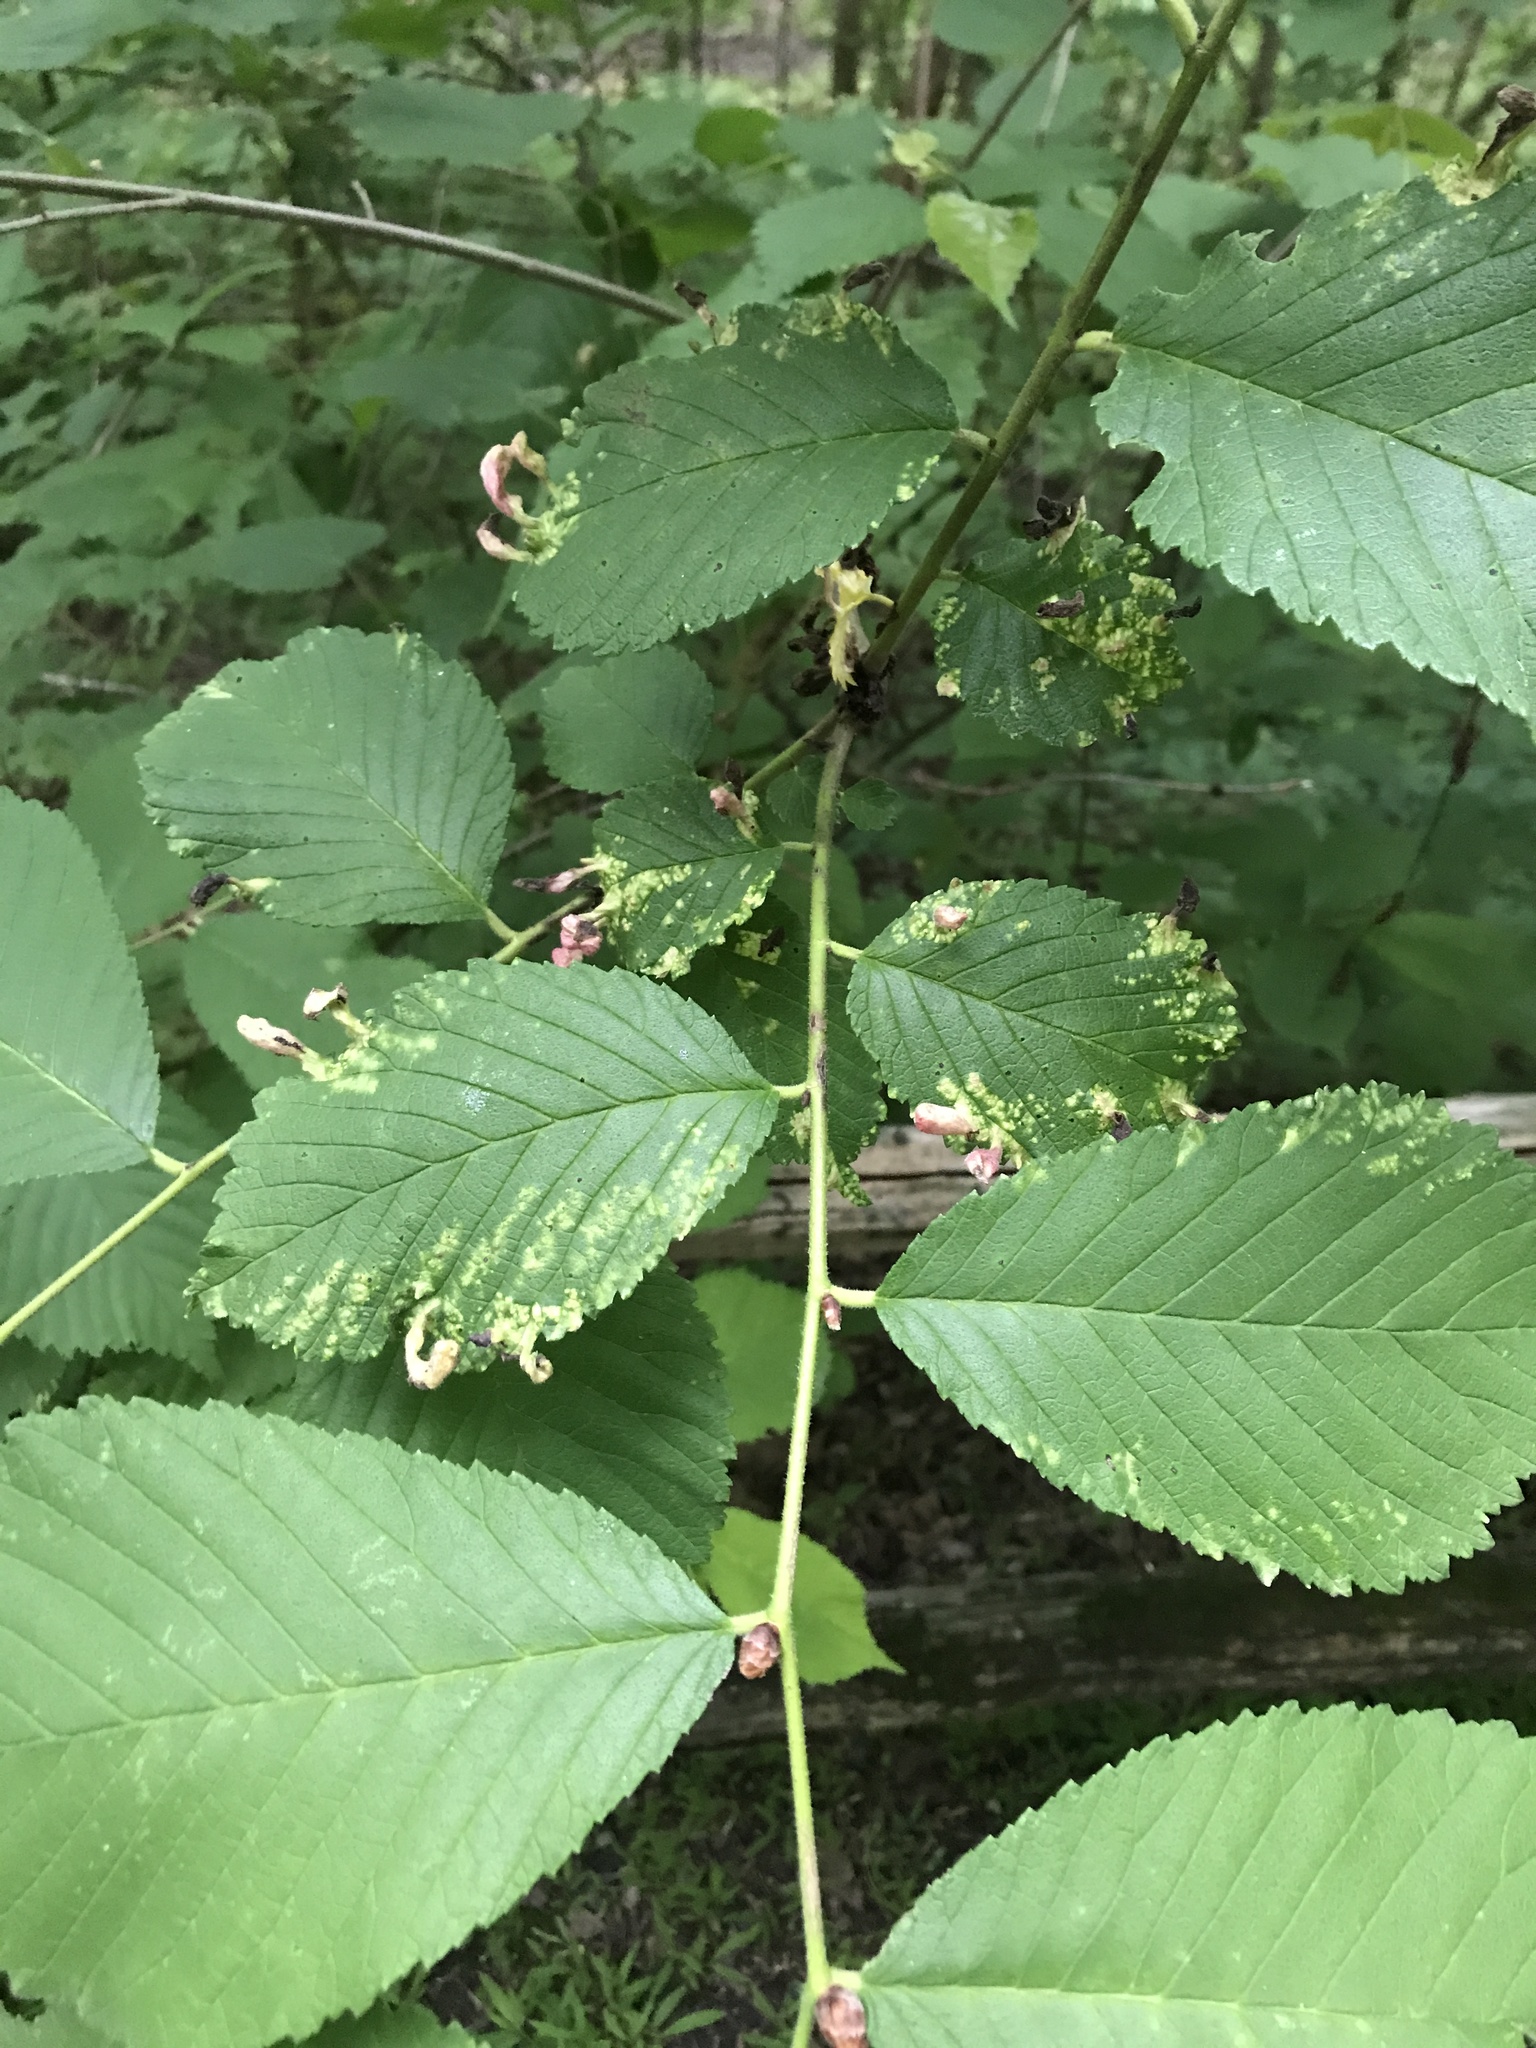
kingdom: Animalia
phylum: Arthropoda
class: Insecta
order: Hemiptera
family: Aphididae
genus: Tetraneura
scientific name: Tetraneura nigriabdominalis
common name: Aphid
